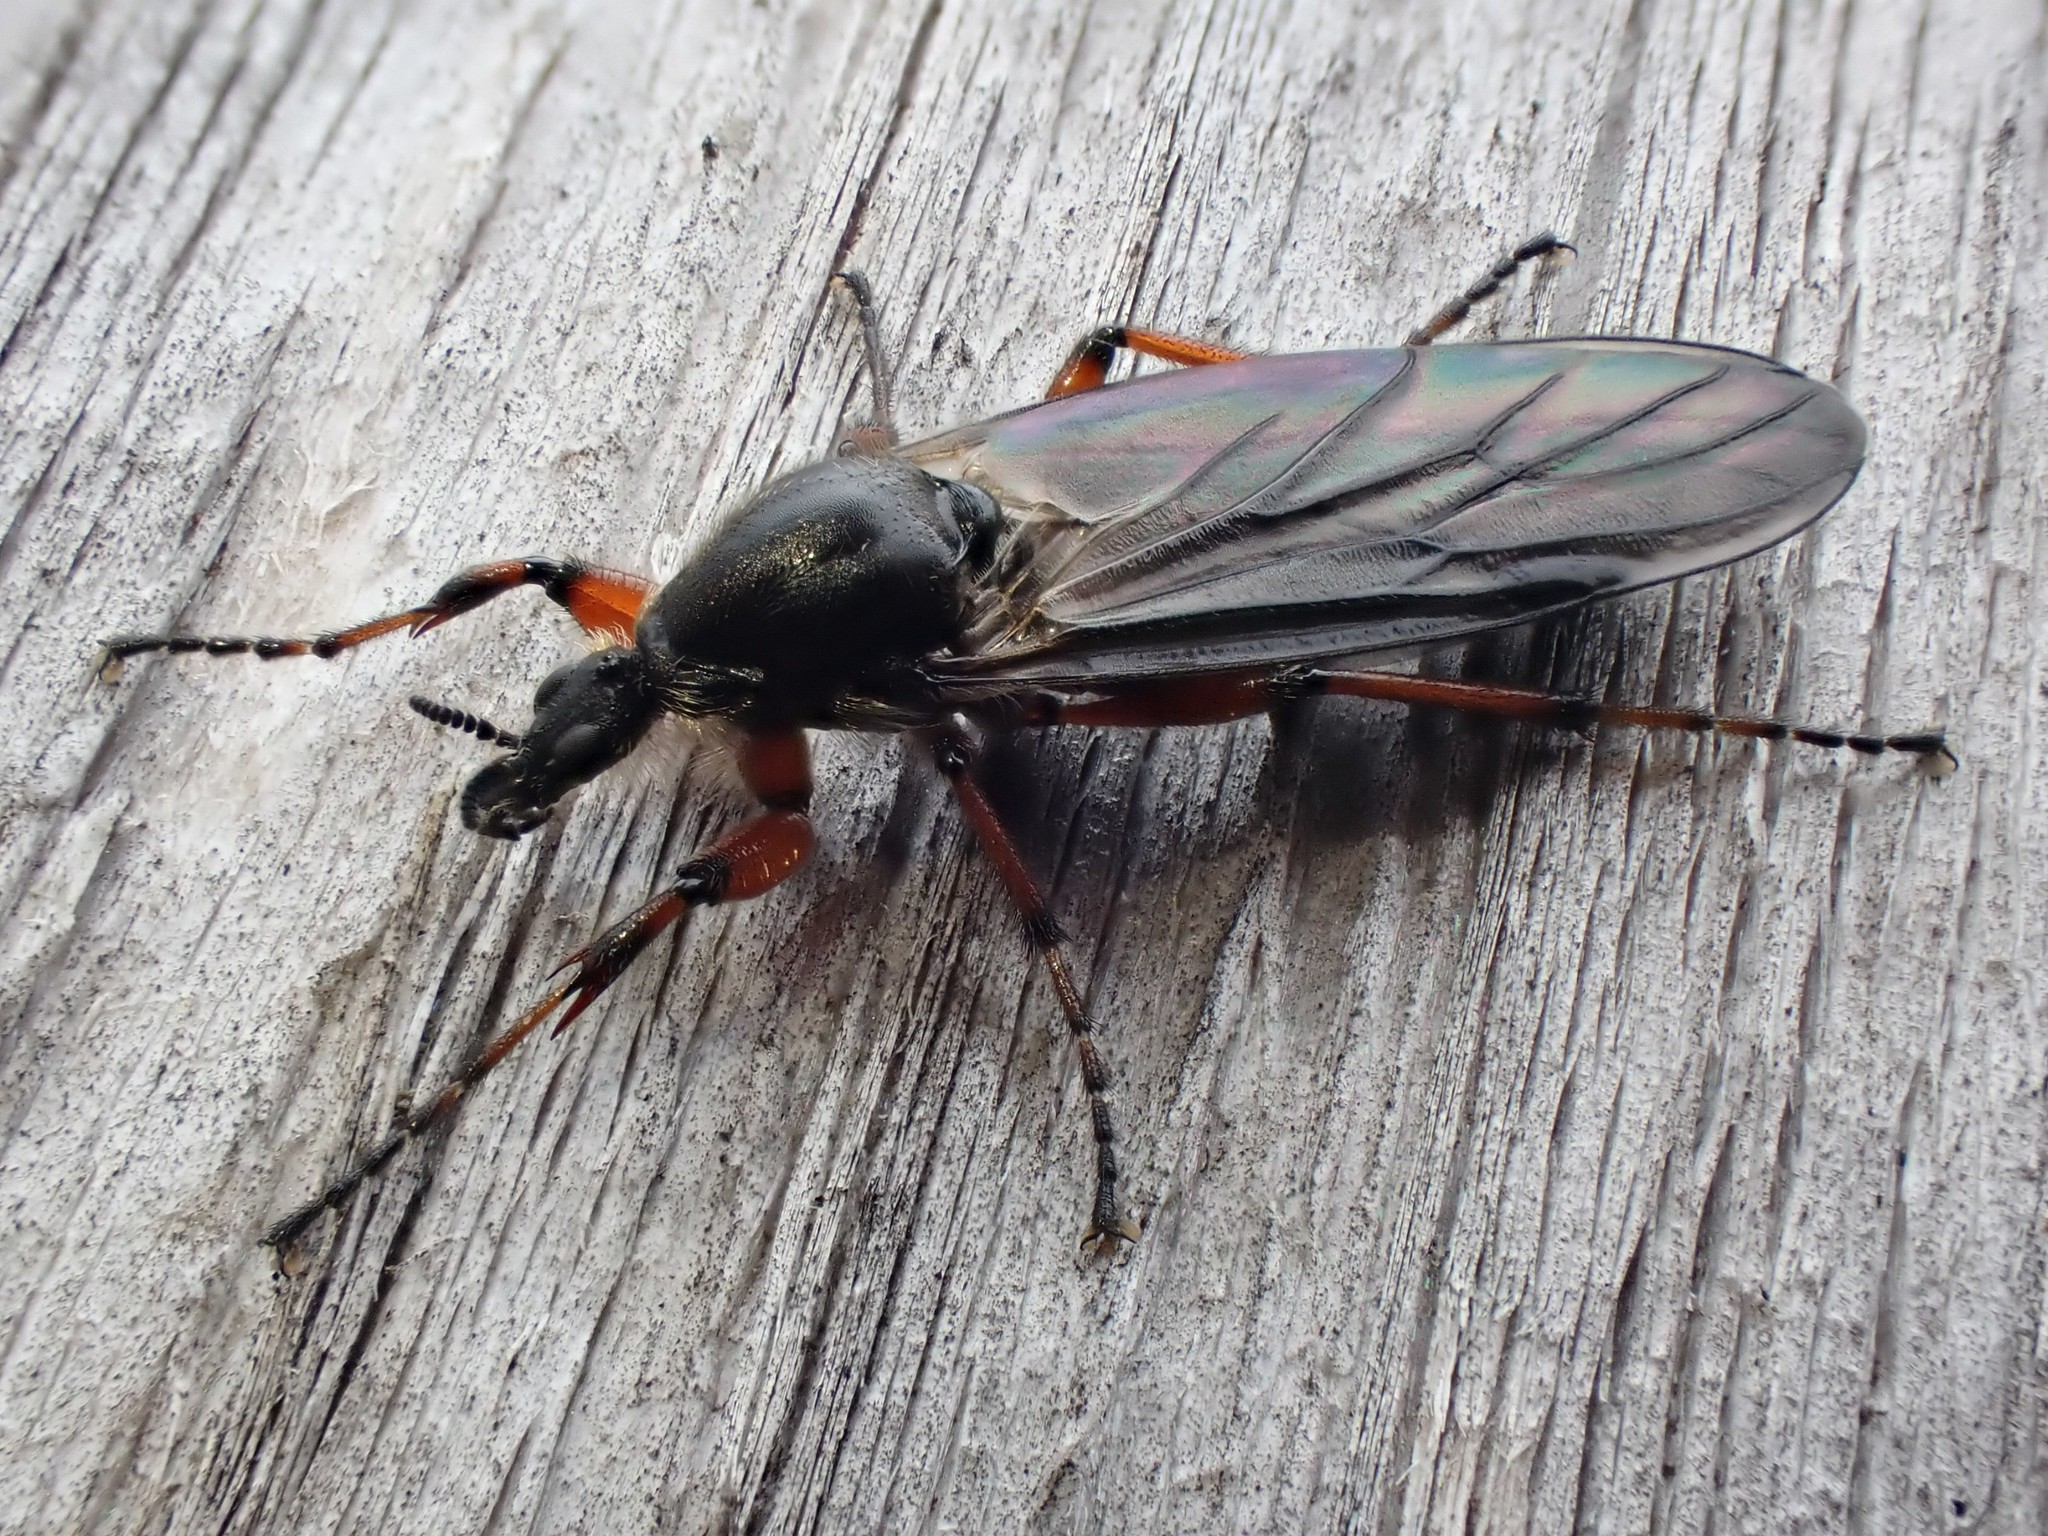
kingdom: Animalia
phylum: Arthropoda
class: Insecta
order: Diptera
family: Bibionidae
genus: Bibio
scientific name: Bibio
